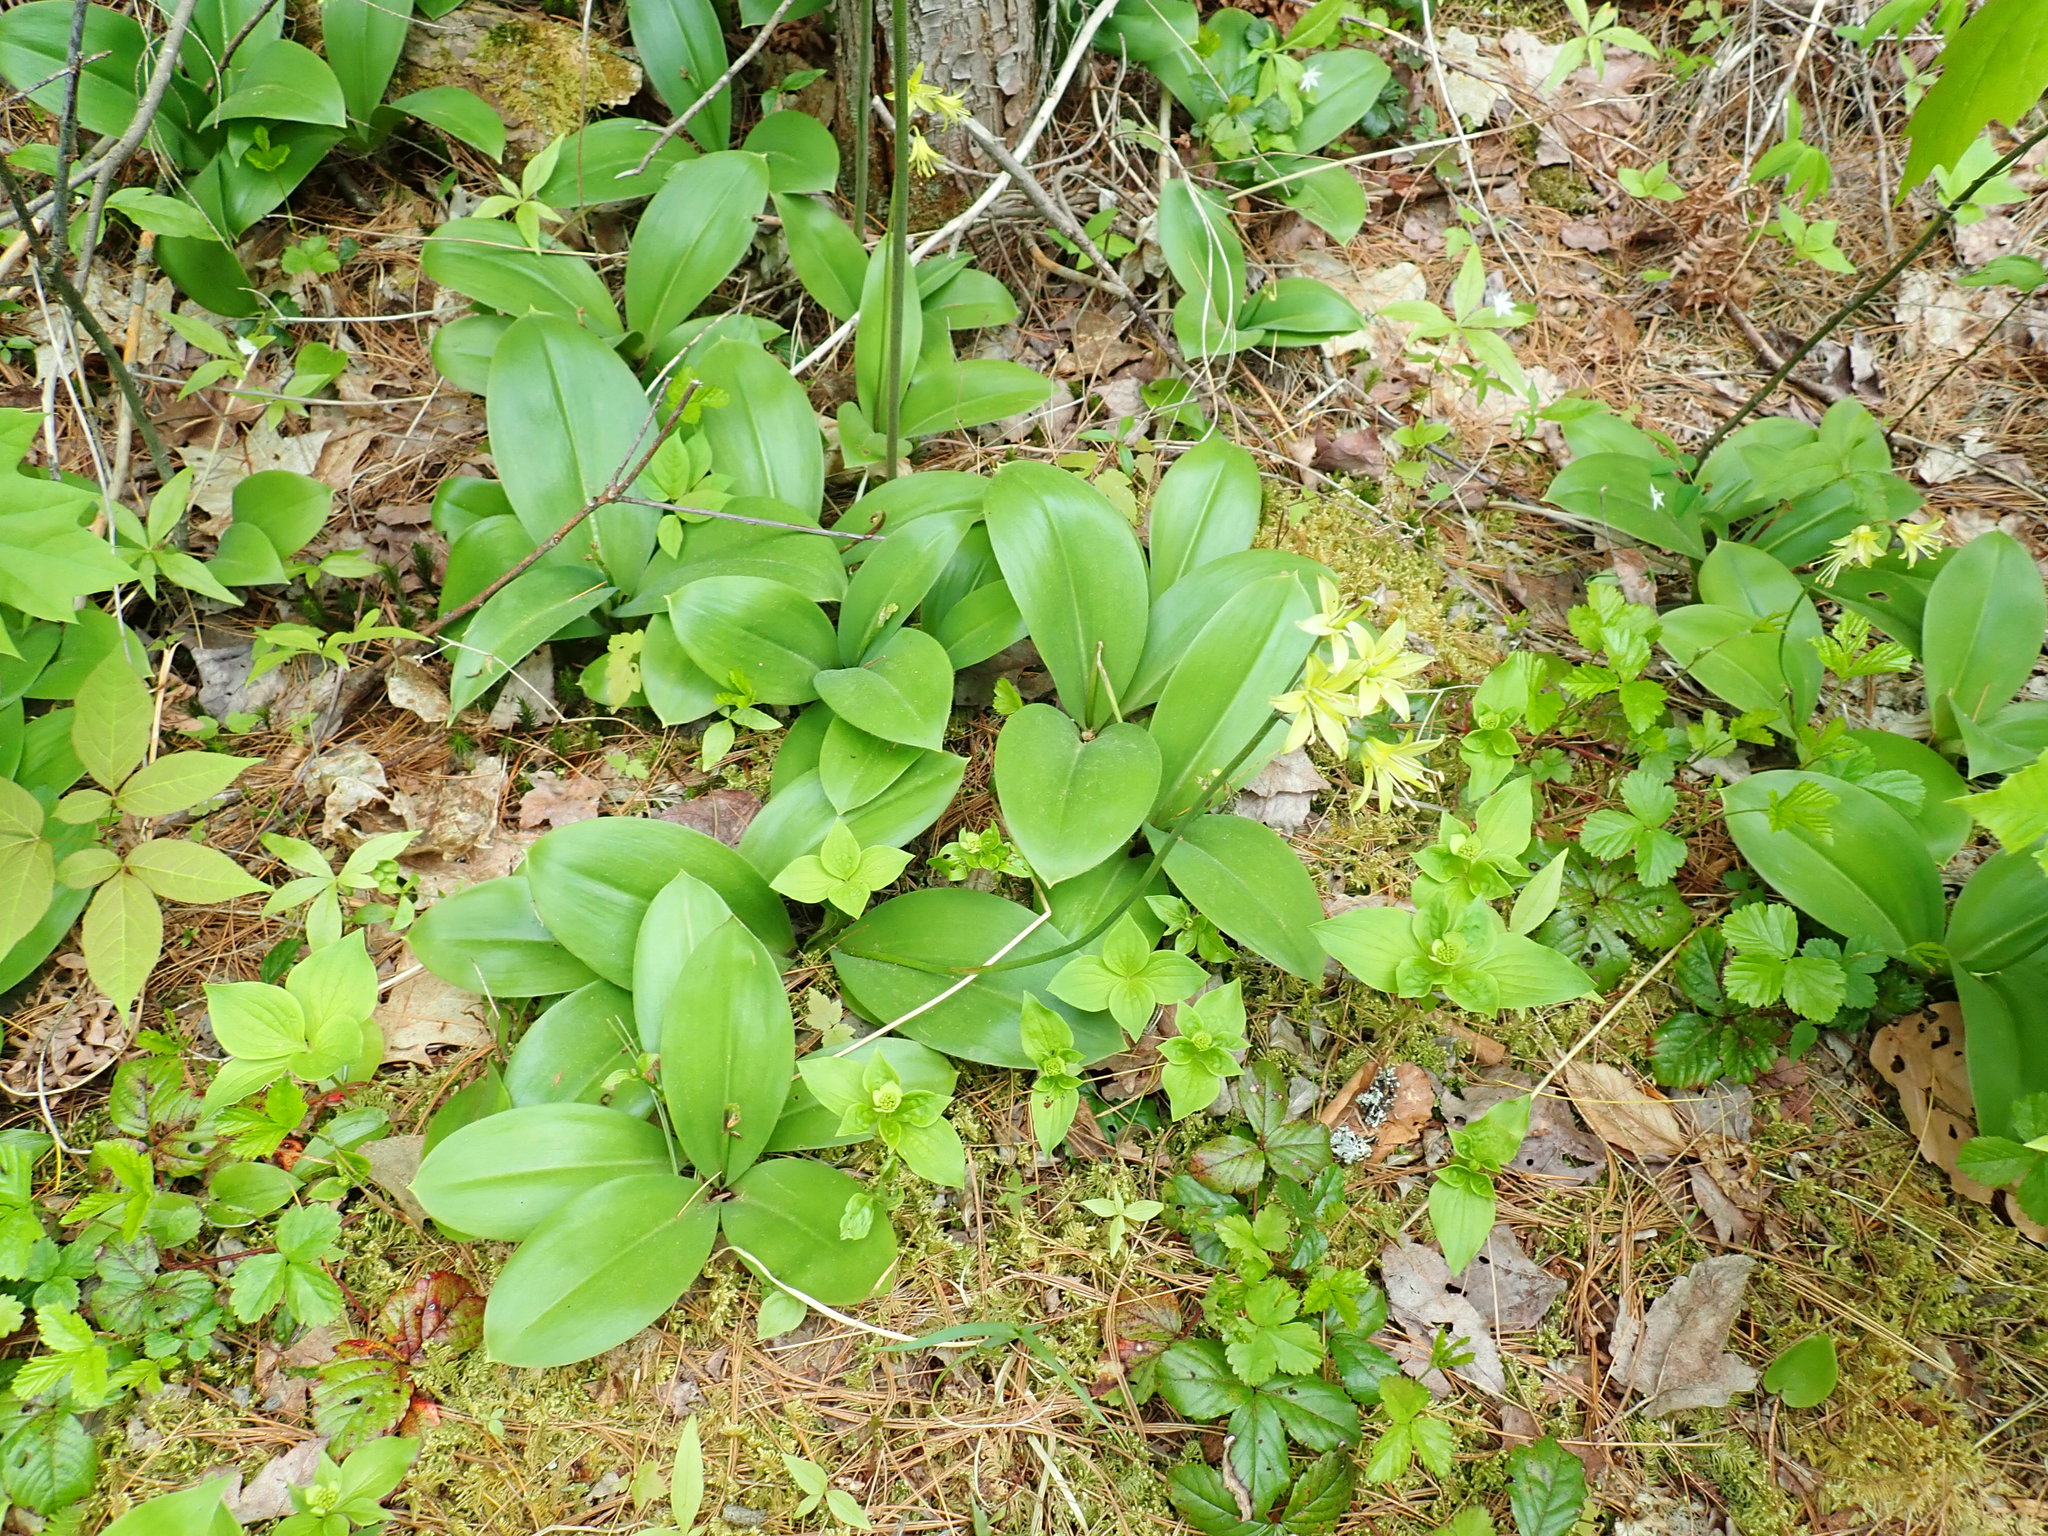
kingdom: Plantae
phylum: Tracheophyta
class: Liliopsida
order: Liliales
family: Liliaceae
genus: Clintonia
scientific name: Clintonia borealis
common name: Yellow clintonia
